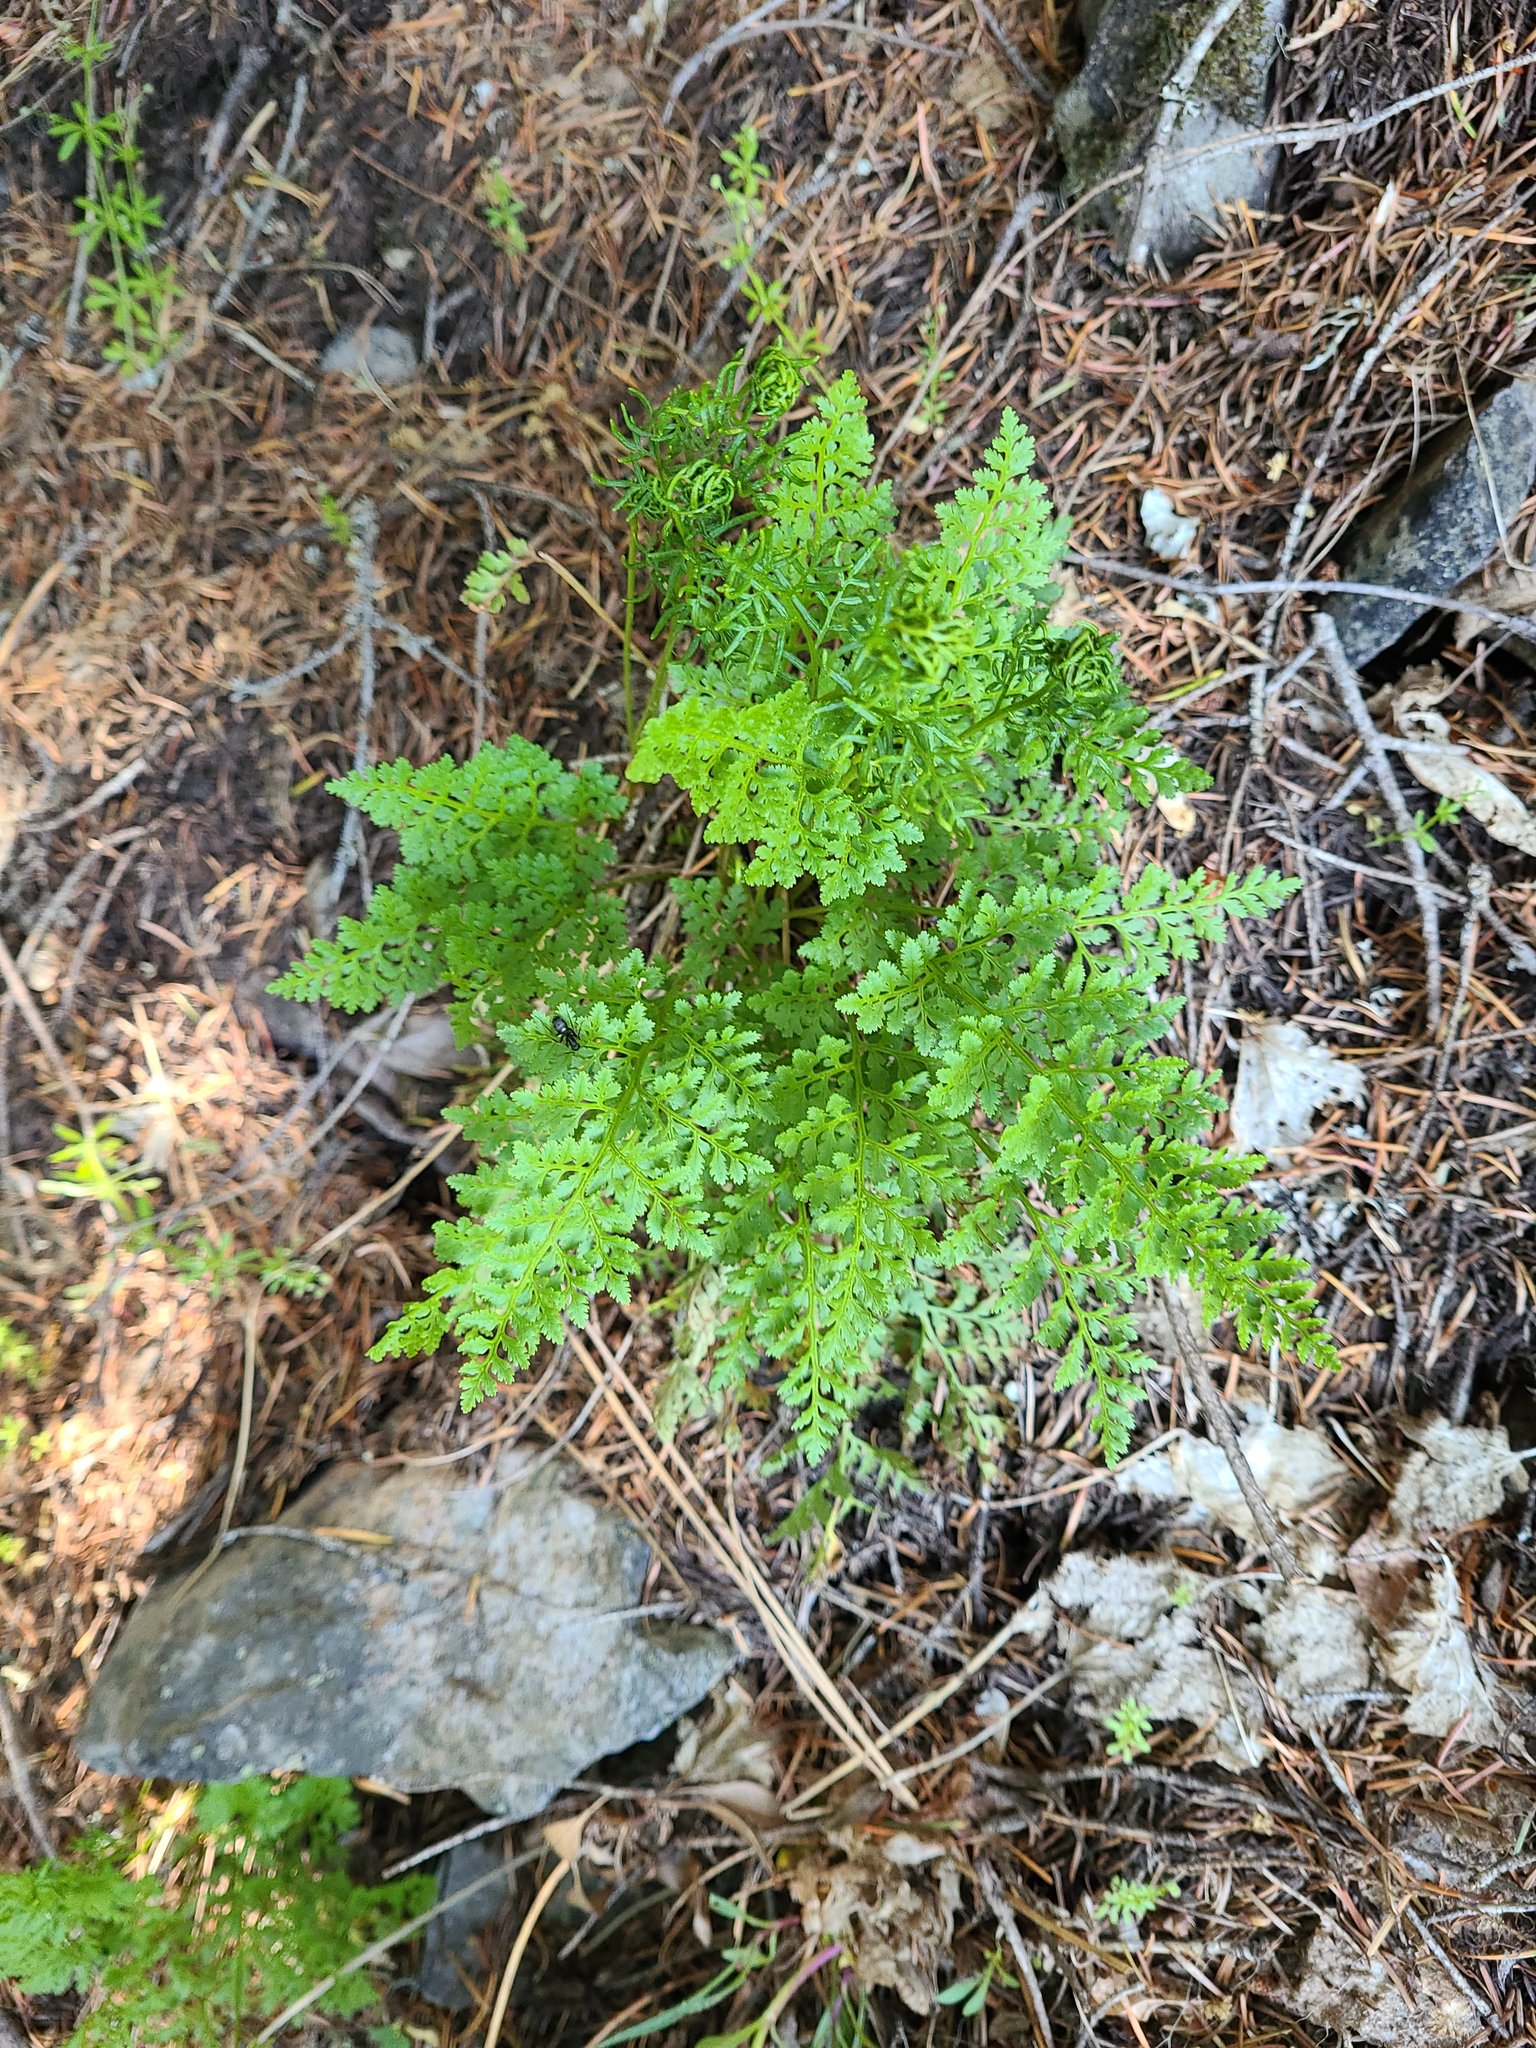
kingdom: Plantae
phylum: Tracheophyta
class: Polypodiopsida
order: Polypodiales
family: Pteridaceae
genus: Cryptogramma
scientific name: Cryptogramma acrostichoides
